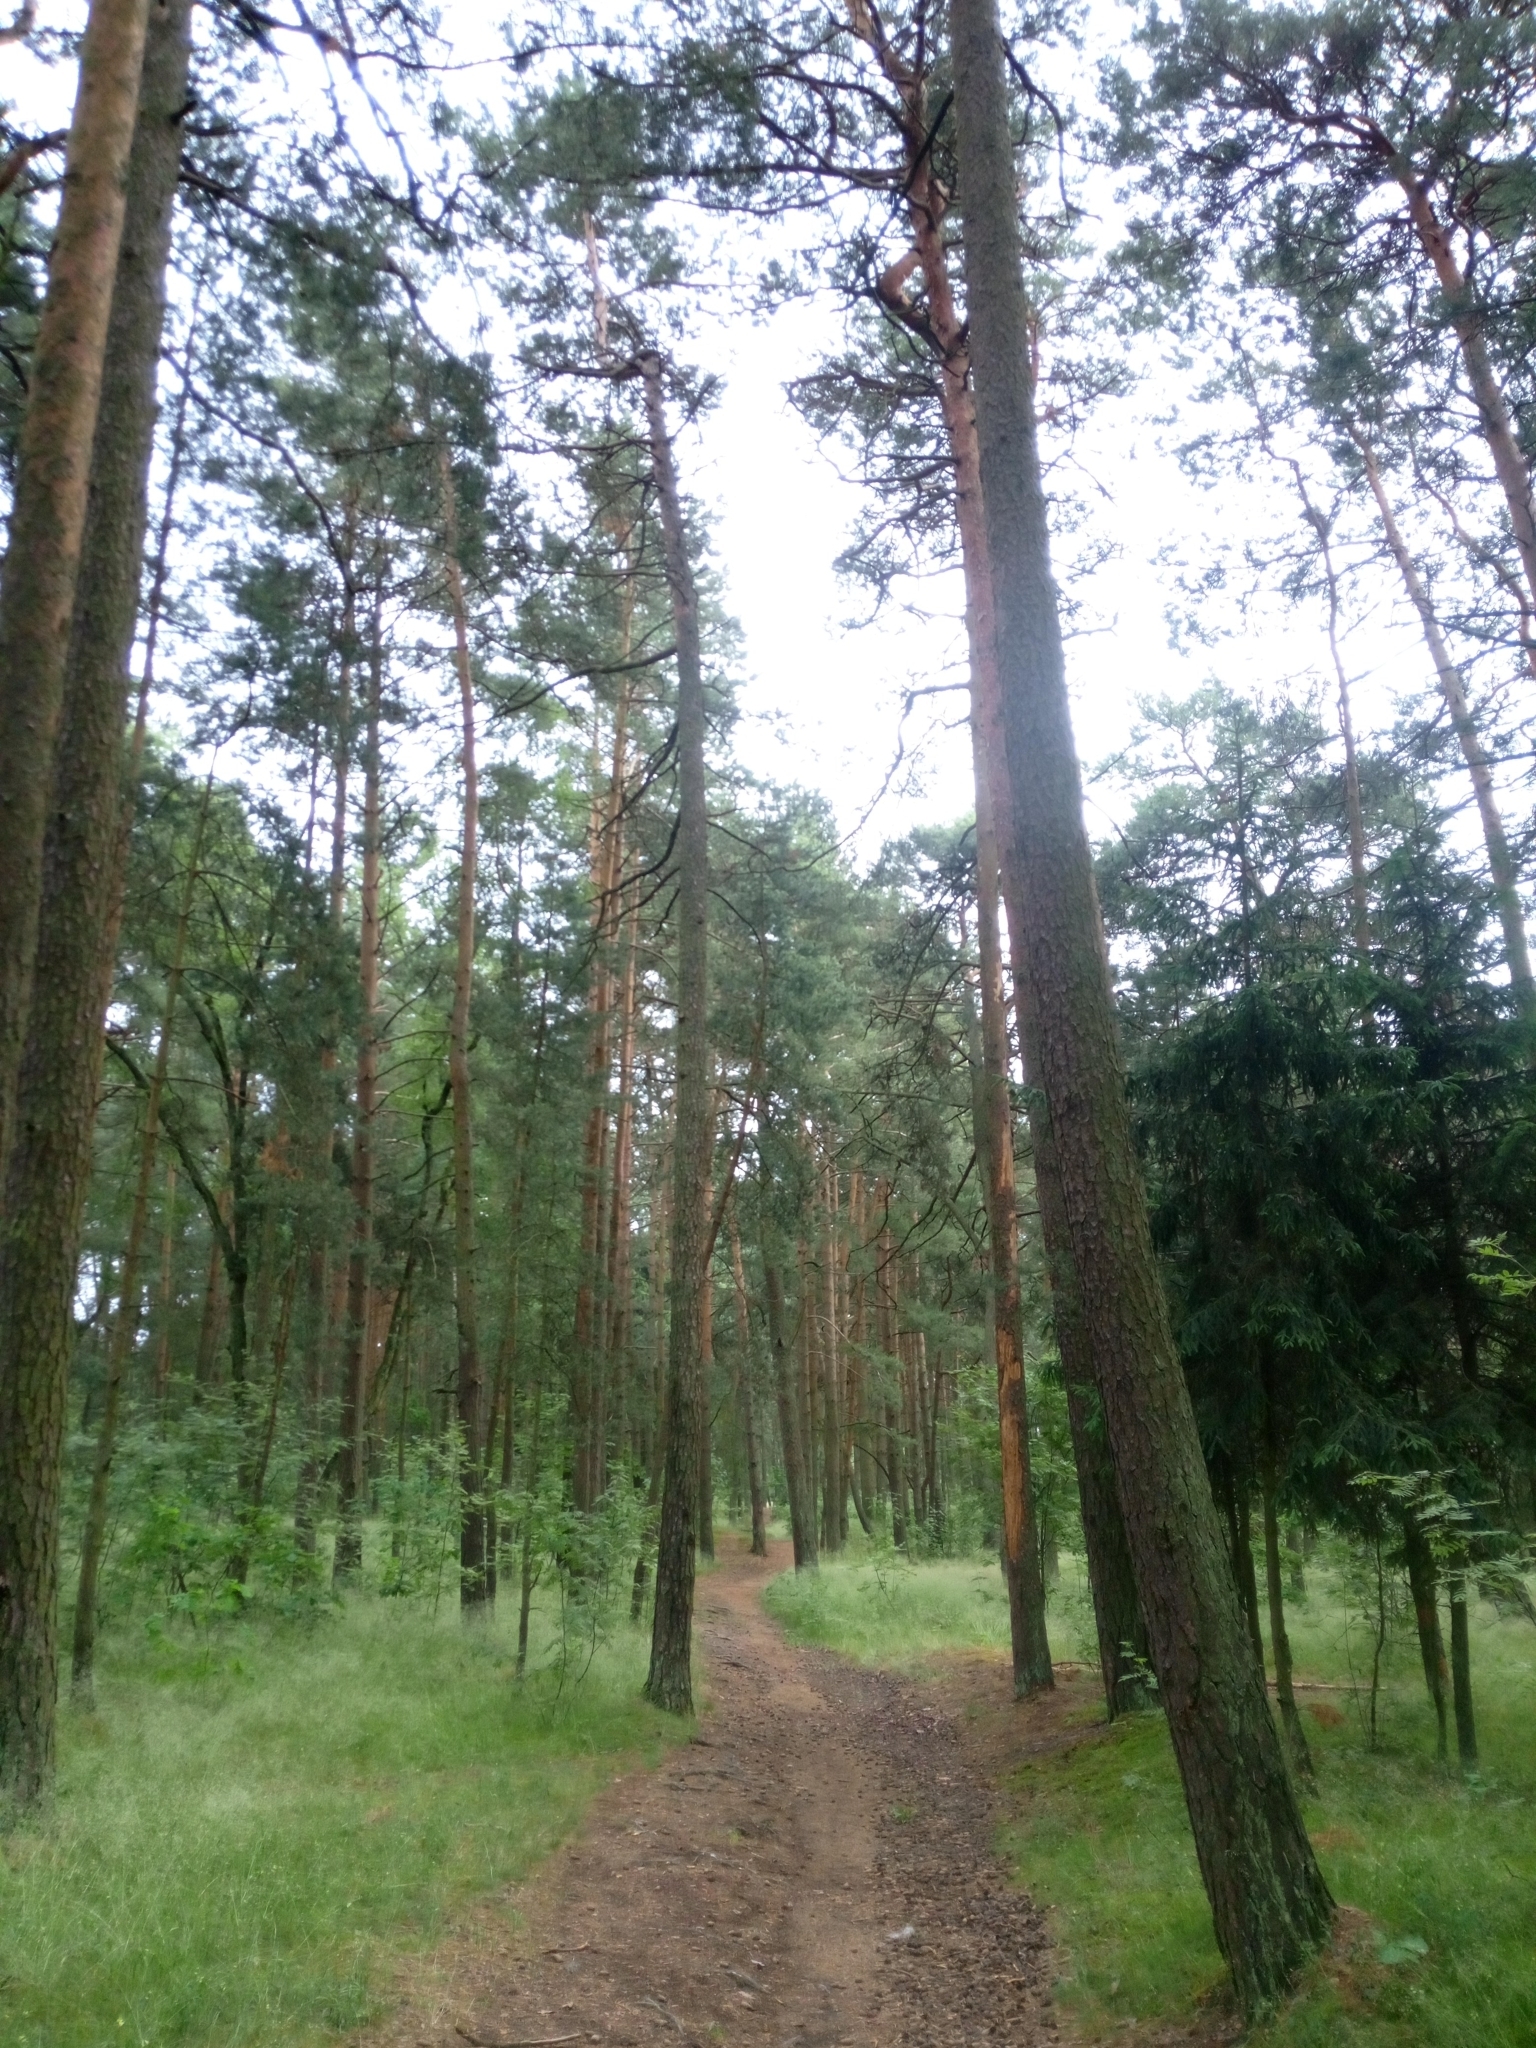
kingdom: Plantae
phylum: Tracheophyta
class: Pinopsida
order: Pinales
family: Pinaceae
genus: Pinus
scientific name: Pinus sylvestris
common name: Scots pine
